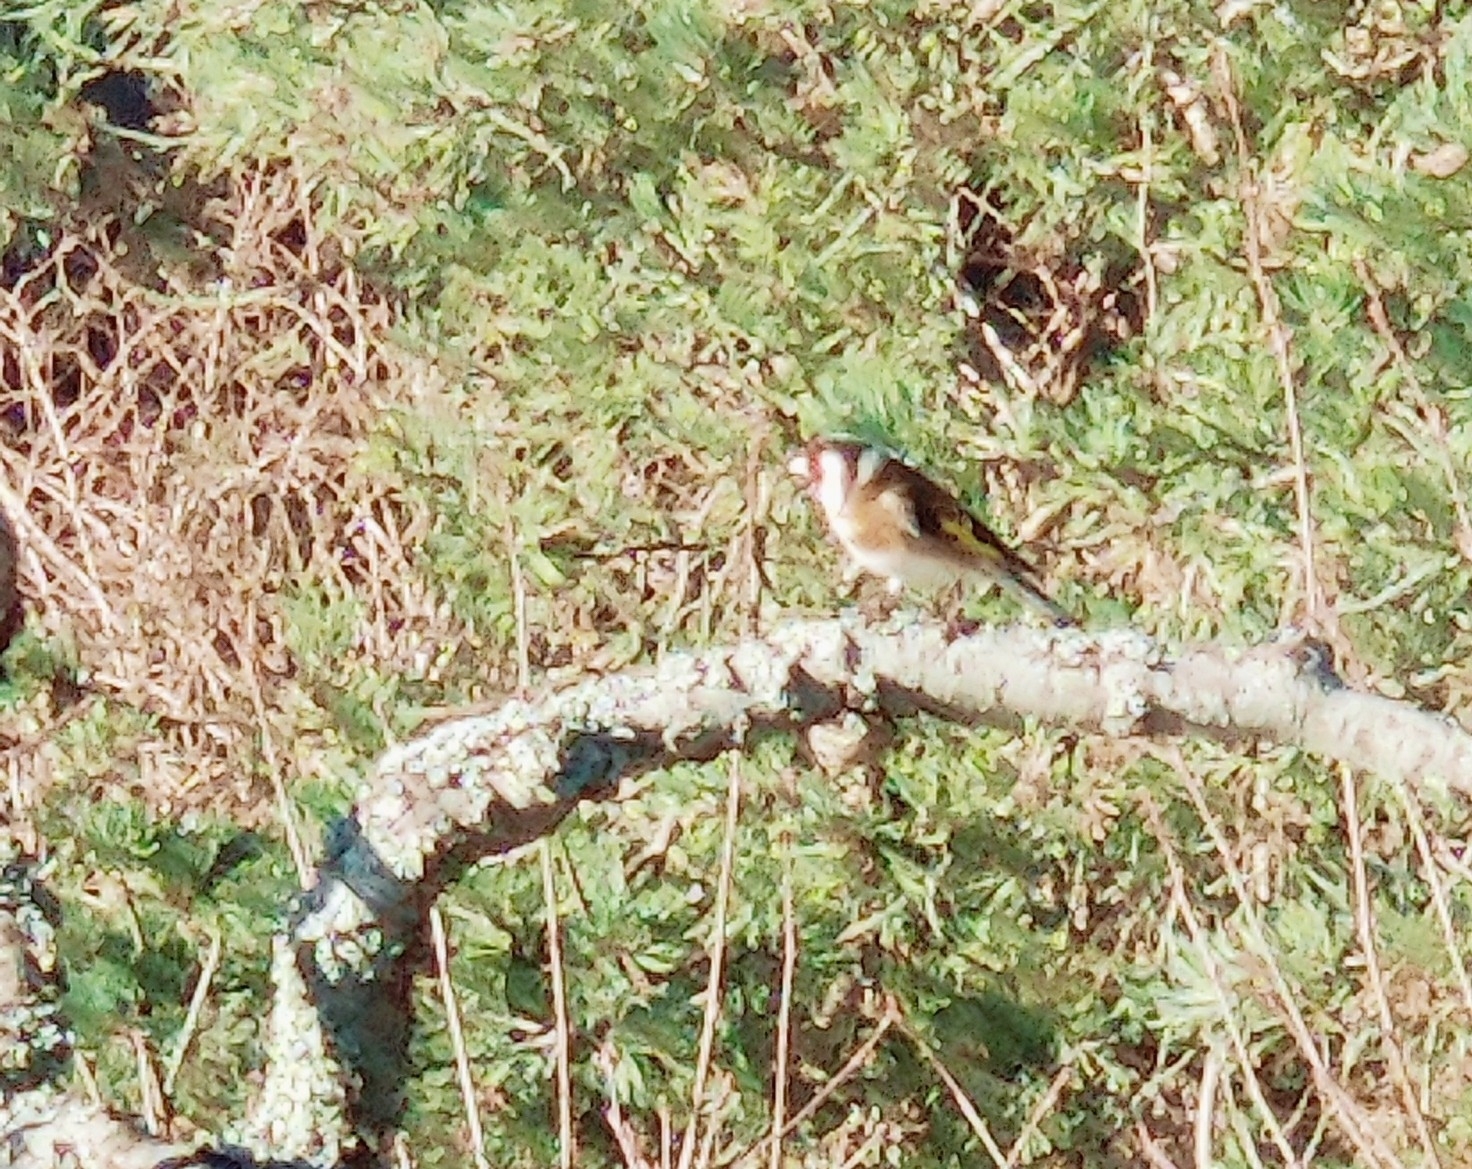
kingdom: Animalia
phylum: Chordata
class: Aves
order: Passeriformes
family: Fringillidae
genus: Carduelis
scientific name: Carduelis carduelis
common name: European goldfinch
